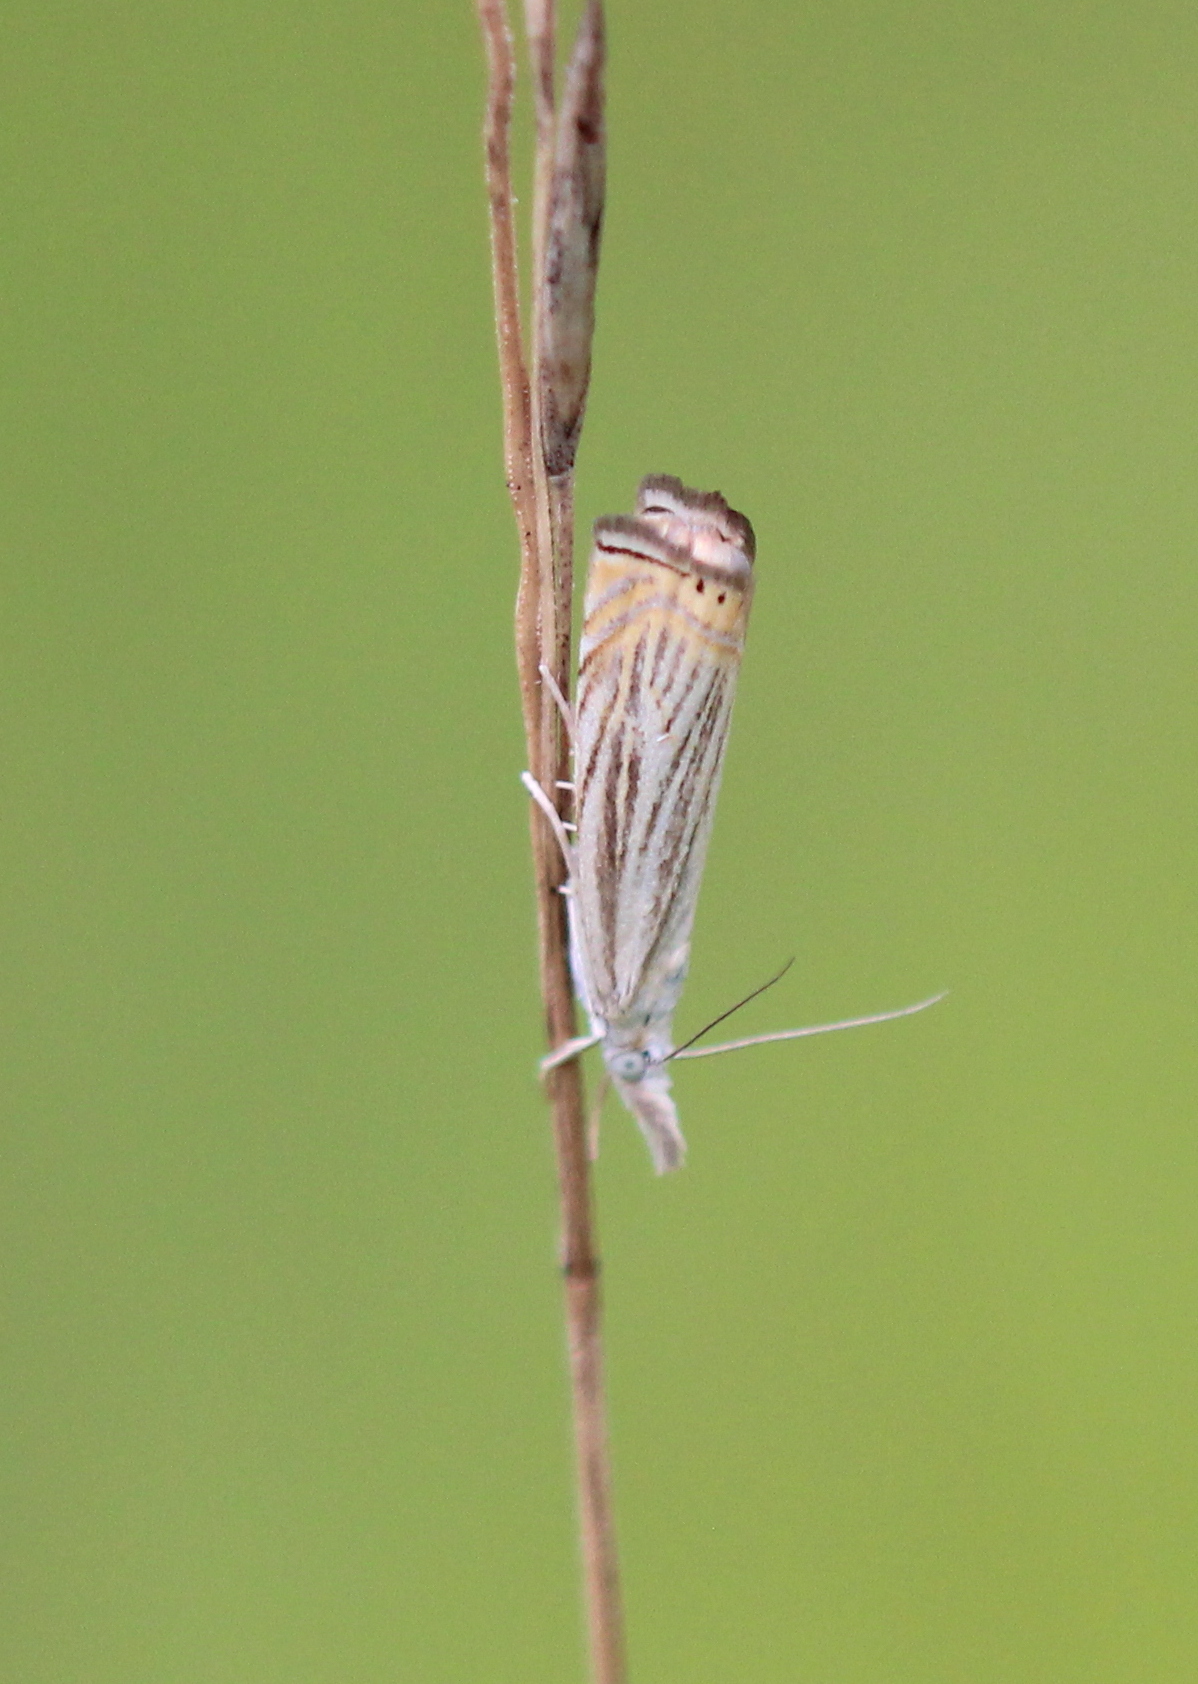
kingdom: Animalia
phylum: Arthropoda
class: Insecta
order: Lepidoptera
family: Crambidae
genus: Chrysoteuchia
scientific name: Chrysoteuchia topiarius
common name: Topiary grass-veneer
